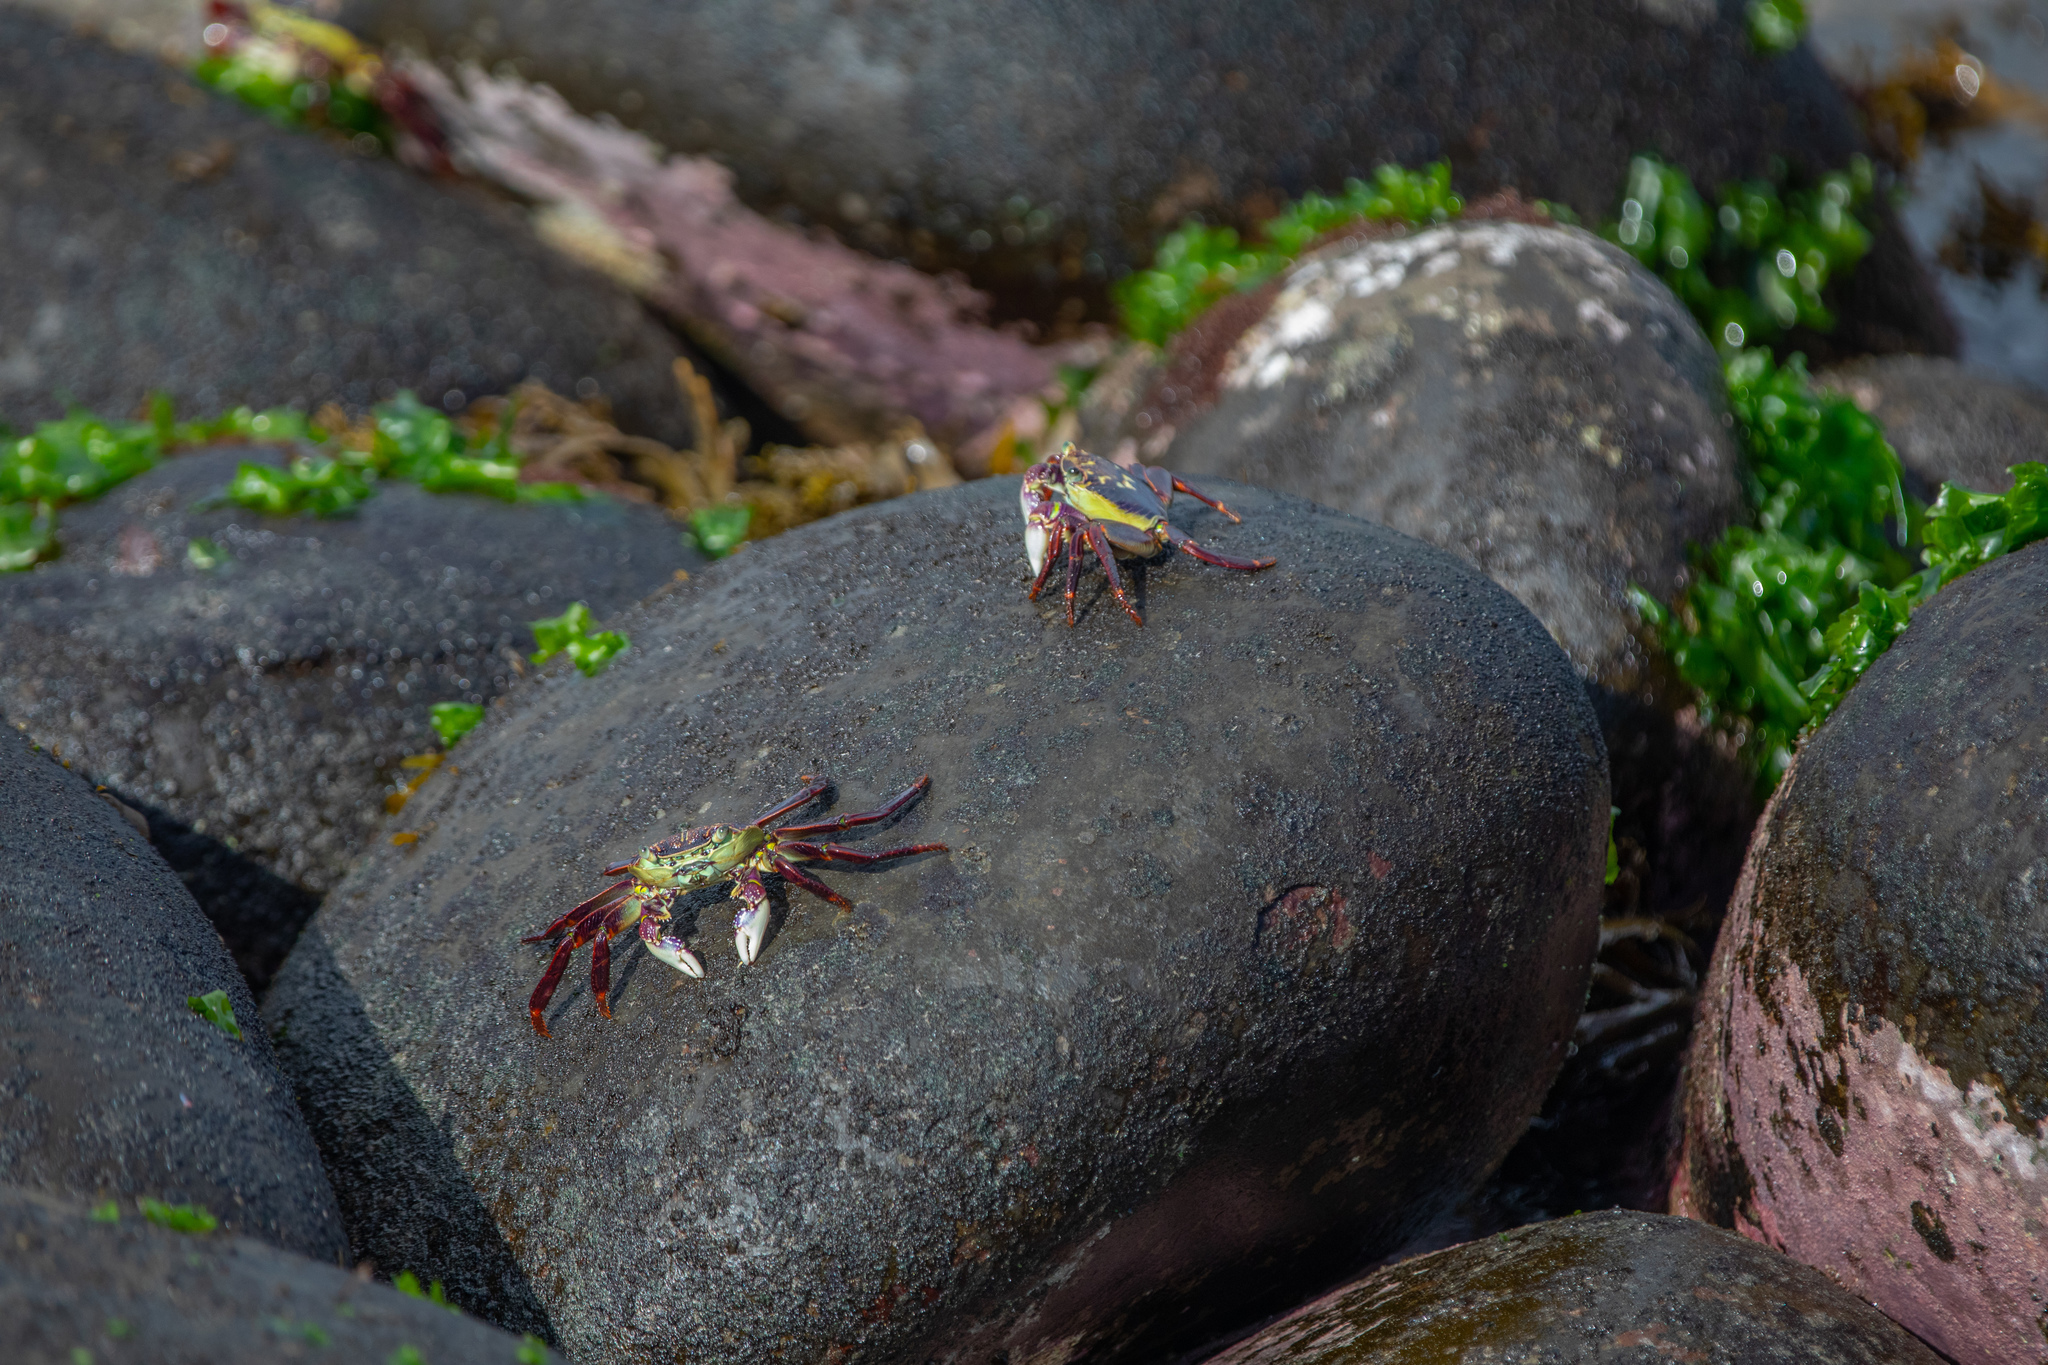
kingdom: Animalia
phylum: Arthropoda
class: Malacostraca
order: Decapoda
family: Grapsidae
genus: Leptograpsus
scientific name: Leptograpsus variegatus
